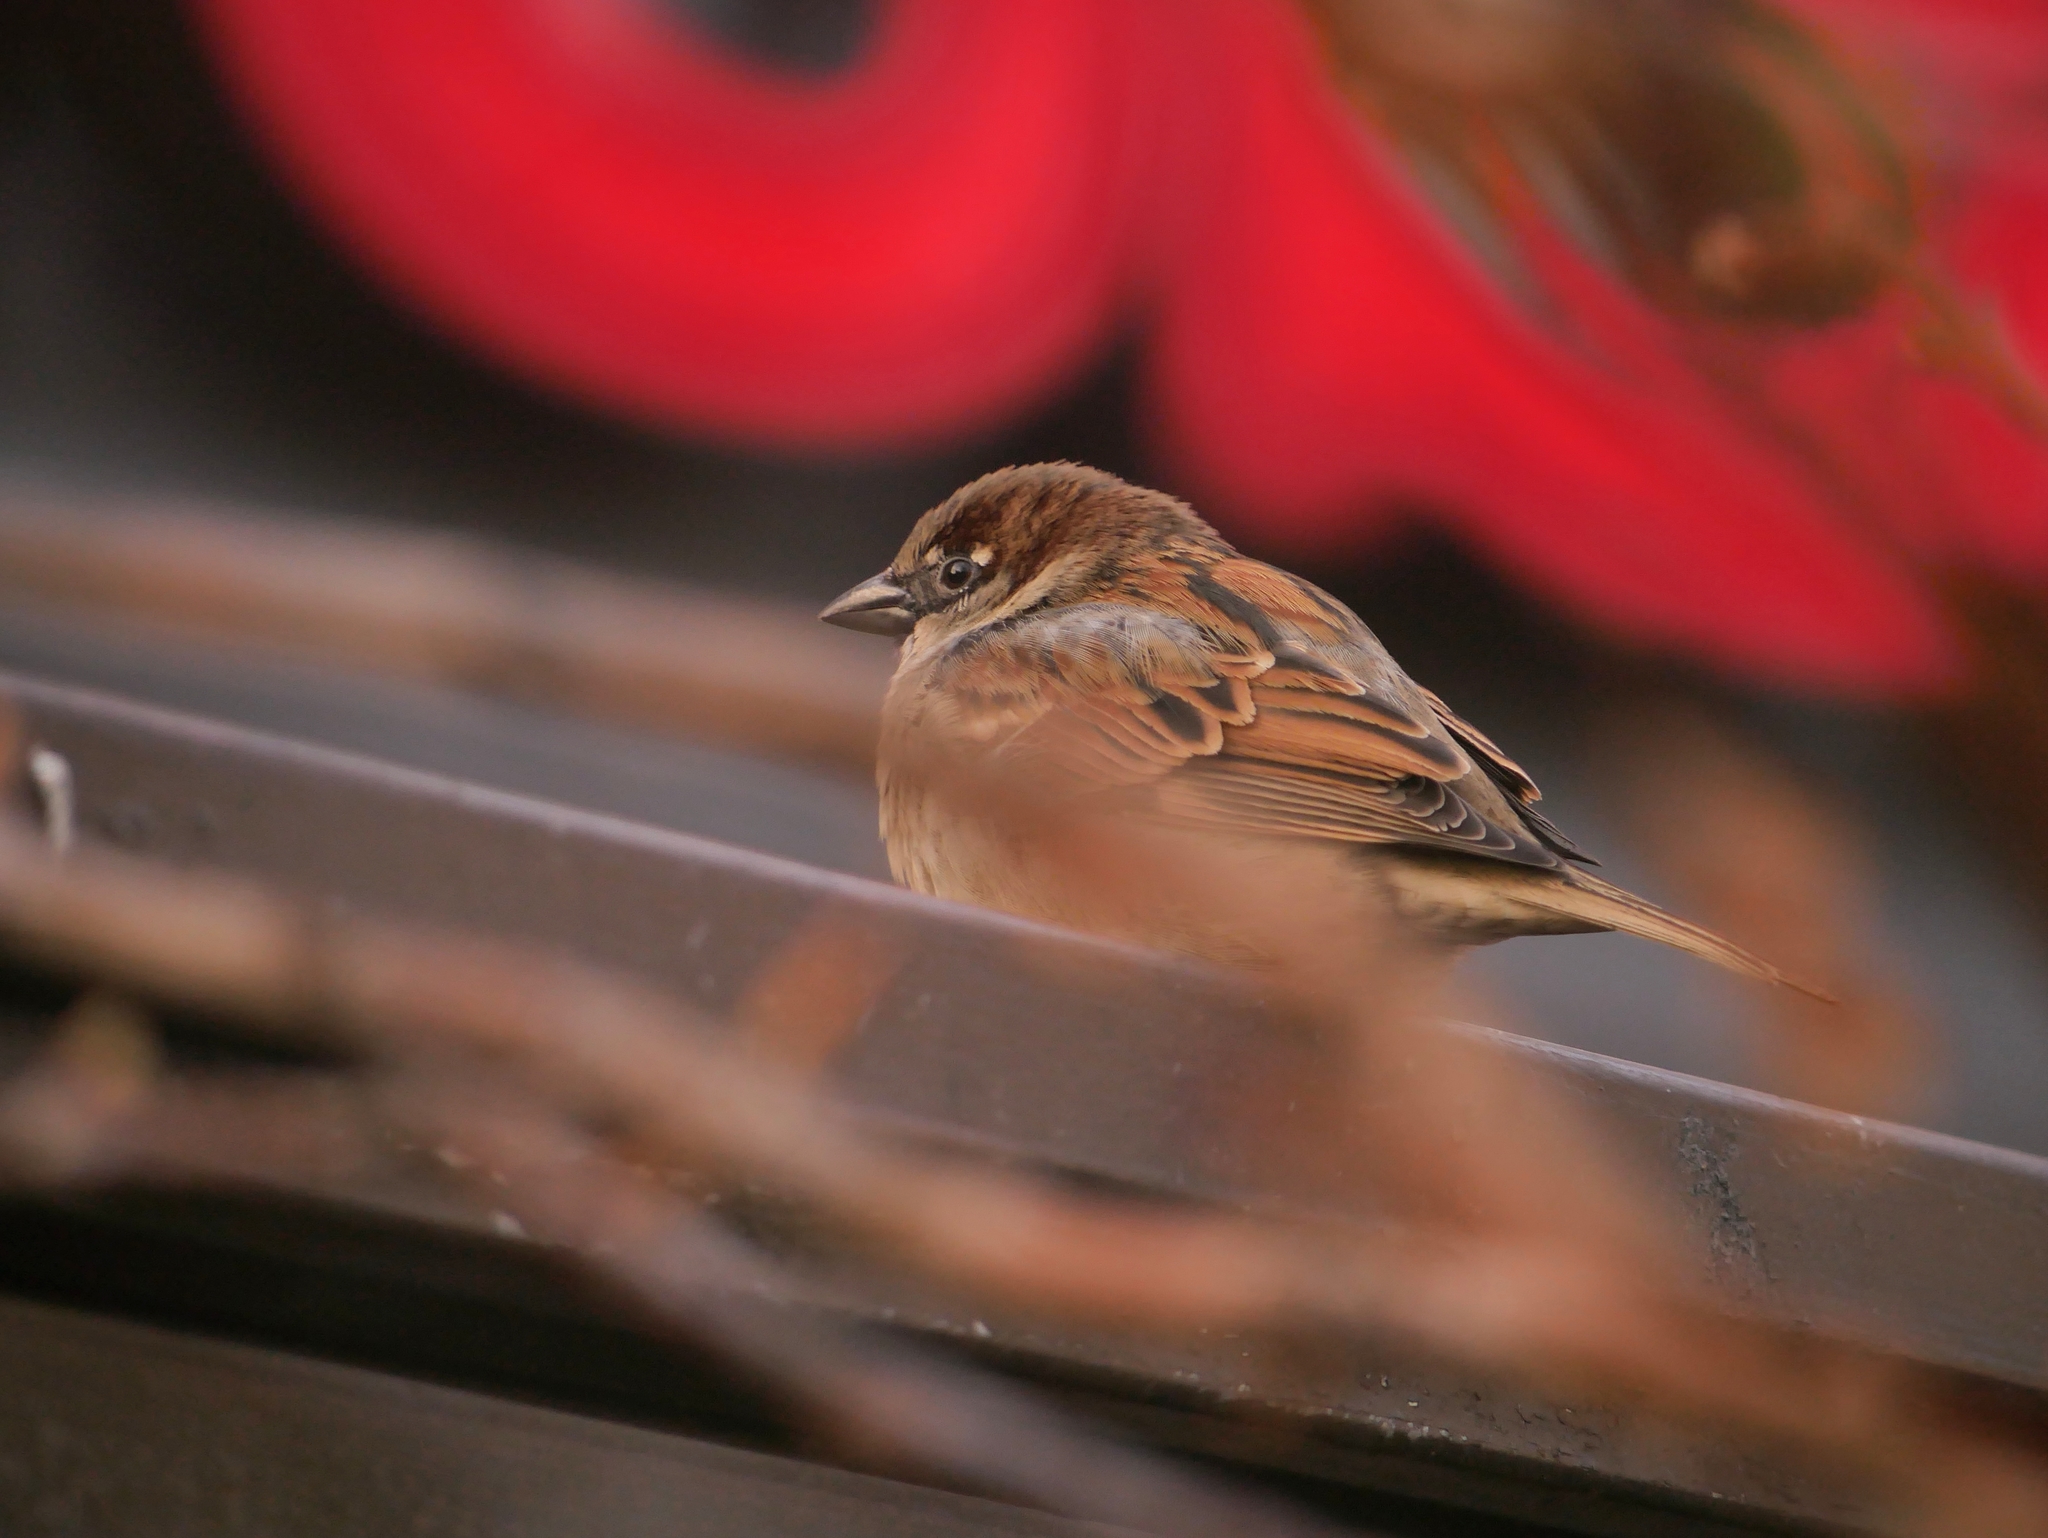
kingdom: Animalia
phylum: Chordata
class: Aves
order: Passeriformes
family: Passeridae
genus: Passer
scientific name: Passer domesticus
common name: House sparrow
